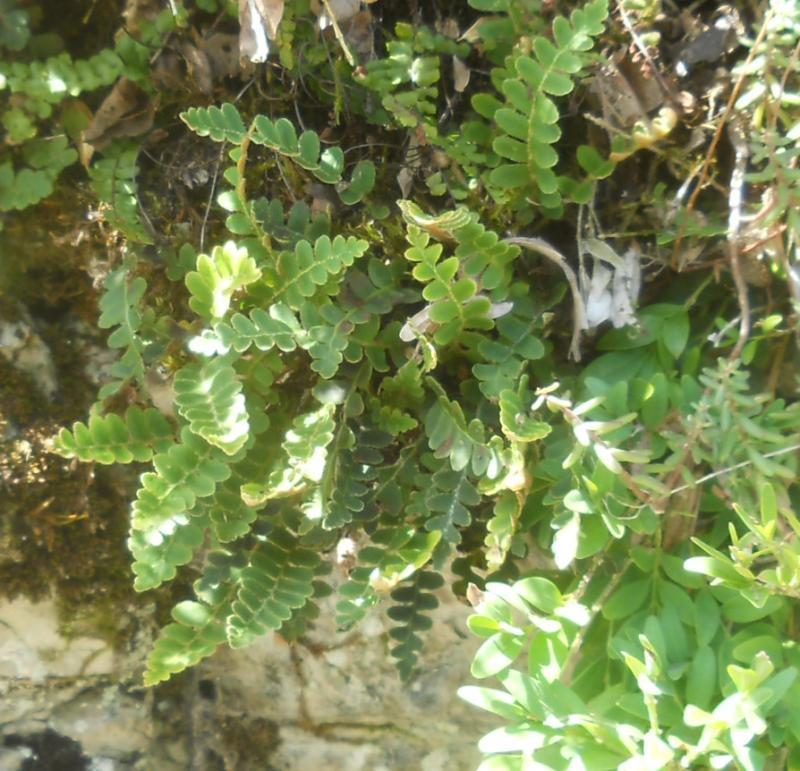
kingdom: Plantae
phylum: Tracheophyta
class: Polypodiopsida
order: Polypodiales
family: Aspleniaceae
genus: Asplenium
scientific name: Asplenium ceterach
